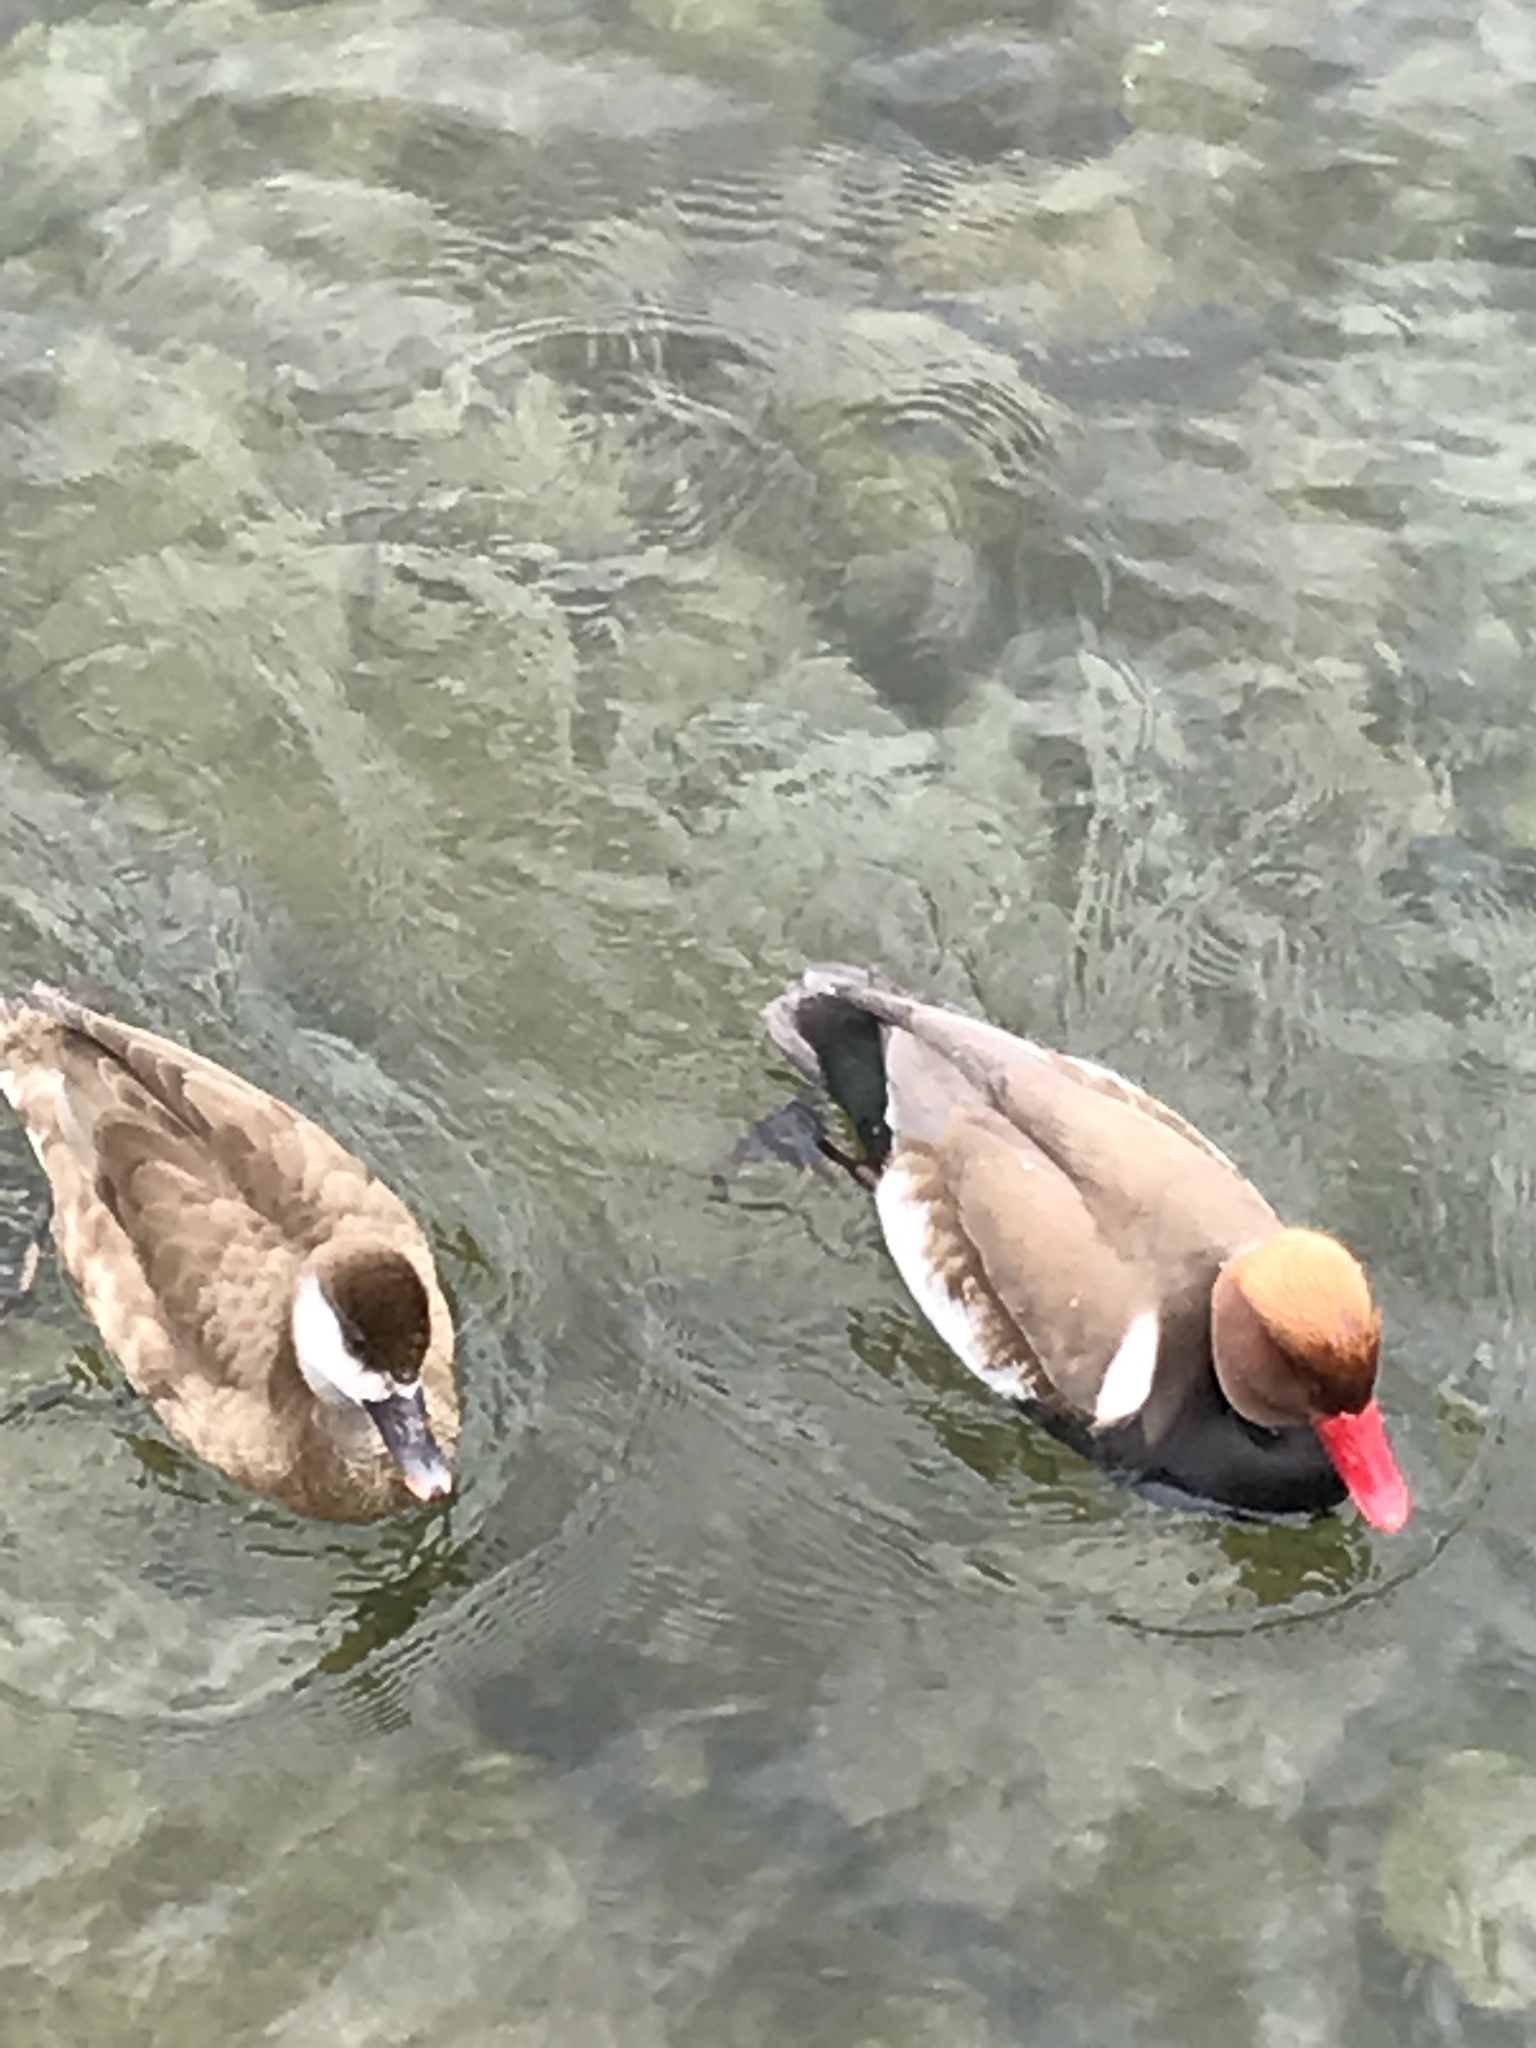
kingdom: Animalia
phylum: Chordata
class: Aves
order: Anseriformes
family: Anatidae
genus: Netta
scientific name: Netta rufina
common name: Red-crested pochard
